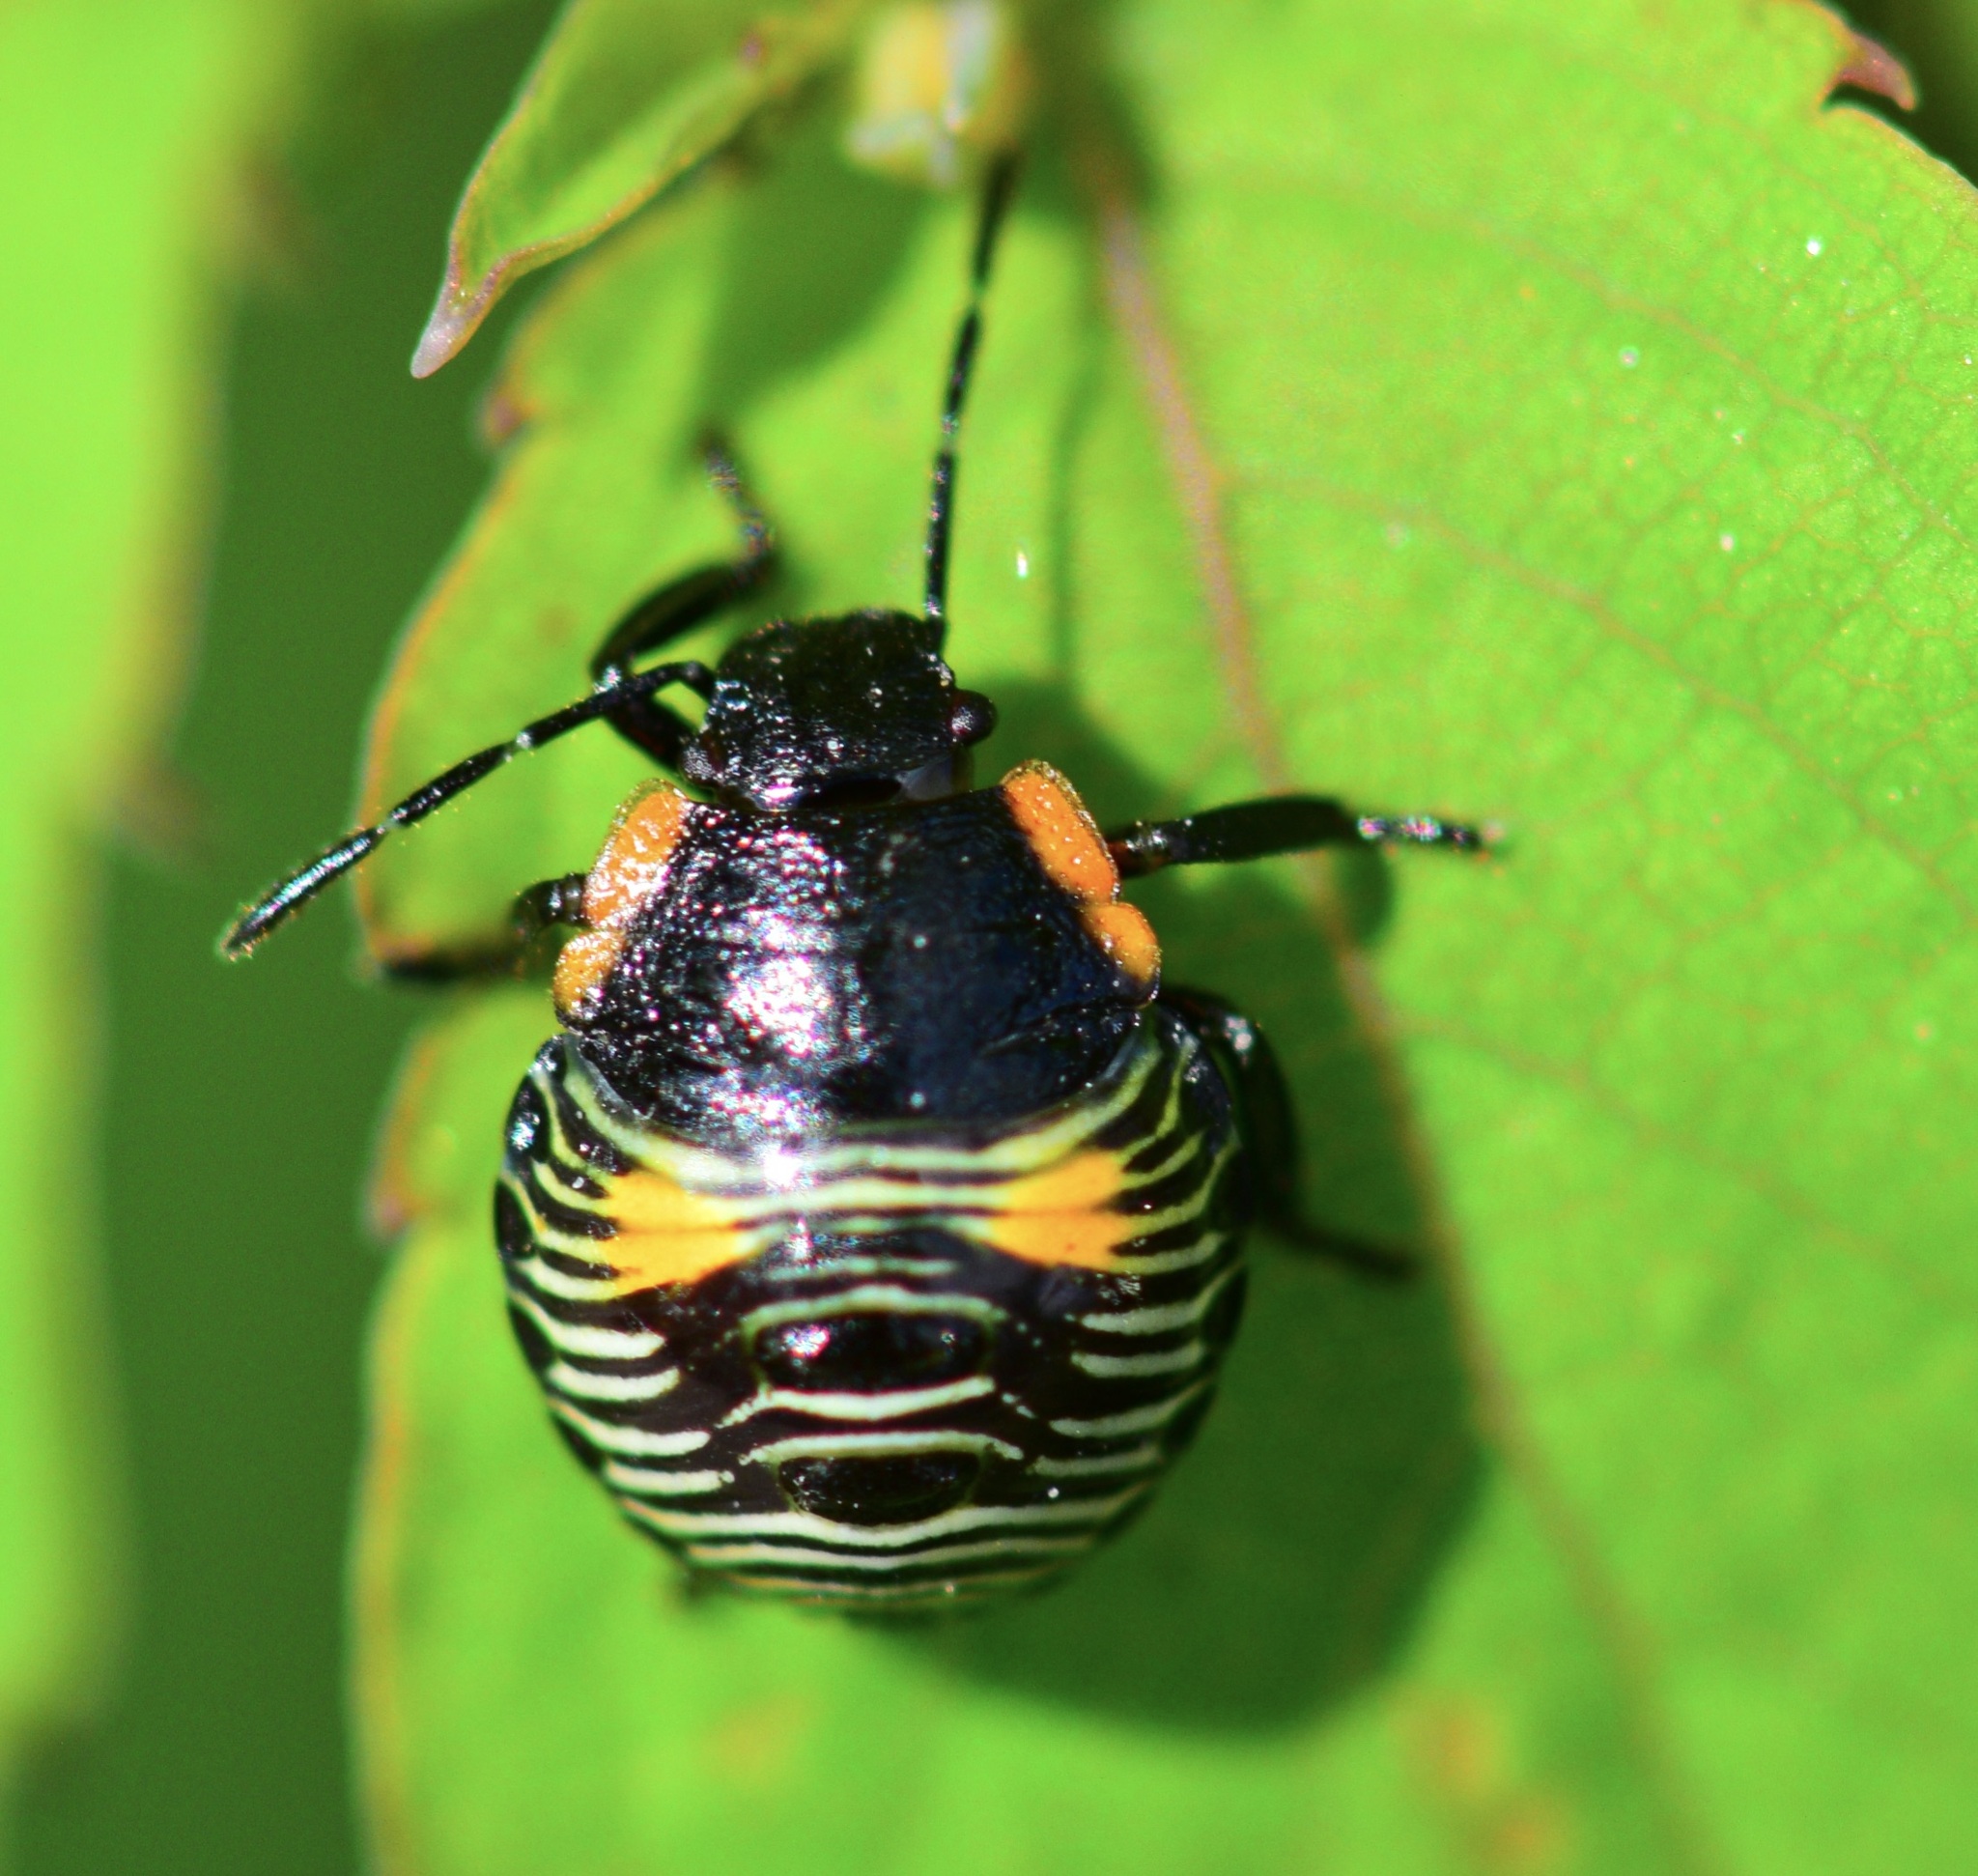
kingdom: Animalia
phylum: Arthropoda
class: Insecta
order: Hemiptera
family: Pentatomidae
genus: Chinavia
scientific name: Chinavia hilaris
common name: Green stink bug
